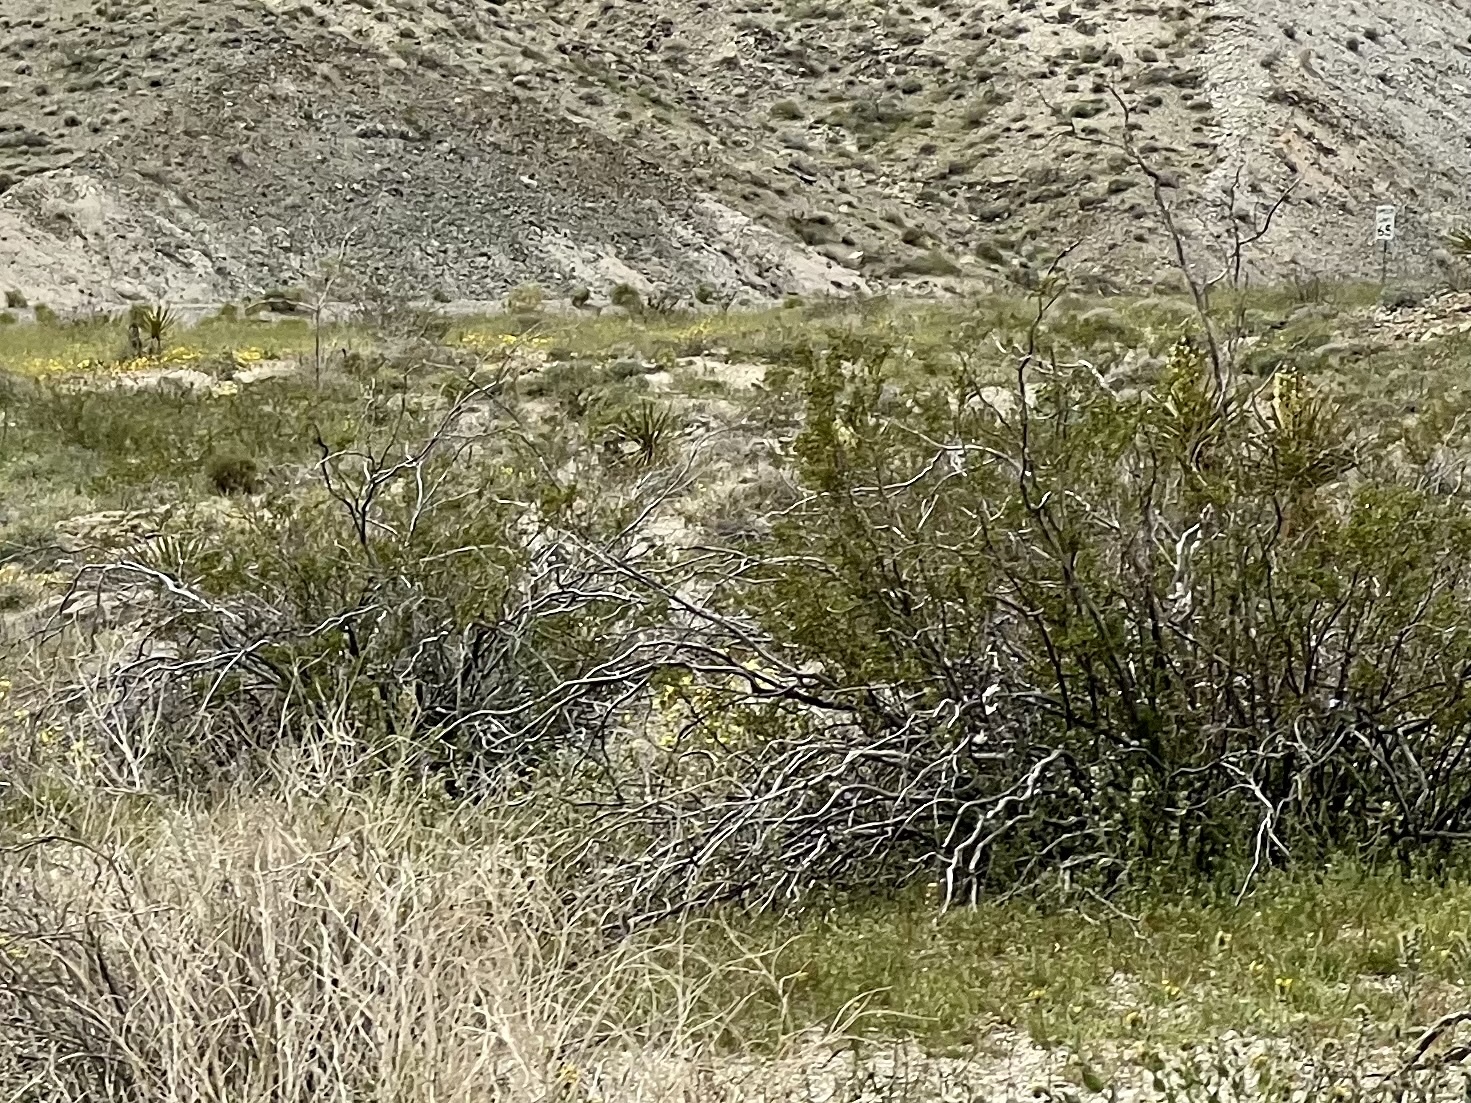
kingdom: Plantae
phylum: Tracheophyta
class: Magnoliopsida
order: Zygophyllales
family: Zygophyllaceae
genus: Larrea
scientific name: Larrea tridentata
